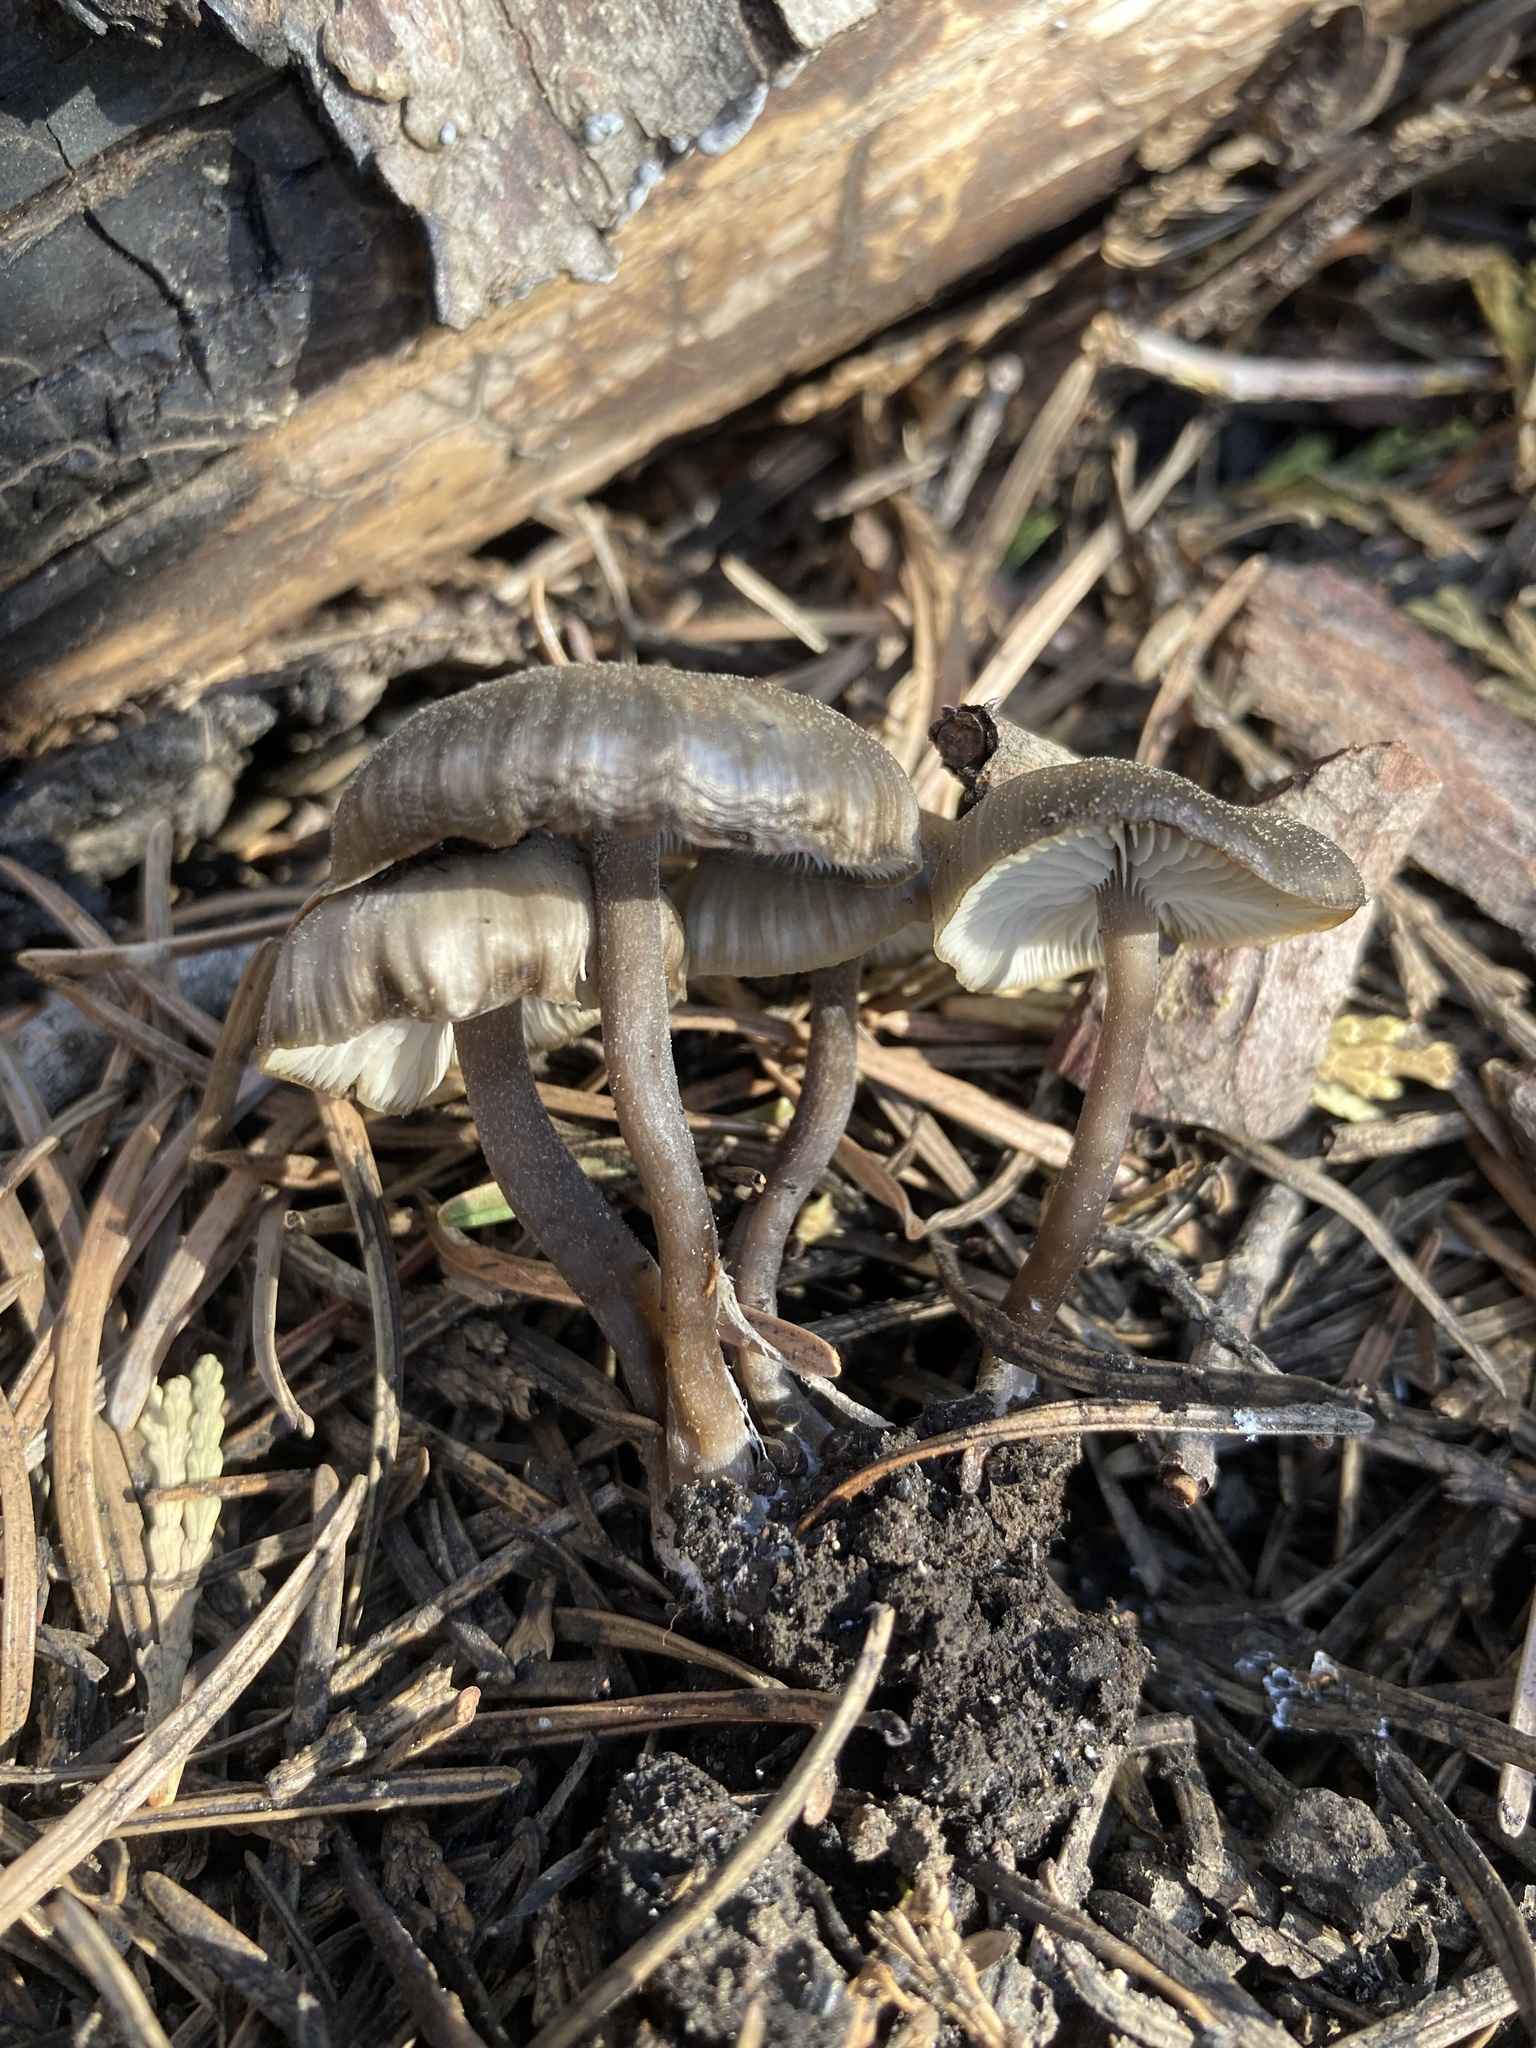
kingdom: Fungi
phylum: Basidiomycota
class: Agaricomycetes
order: Agaricales
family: Tricholomataceae
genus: Myxomphalia
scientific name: Myxomphalia maura
